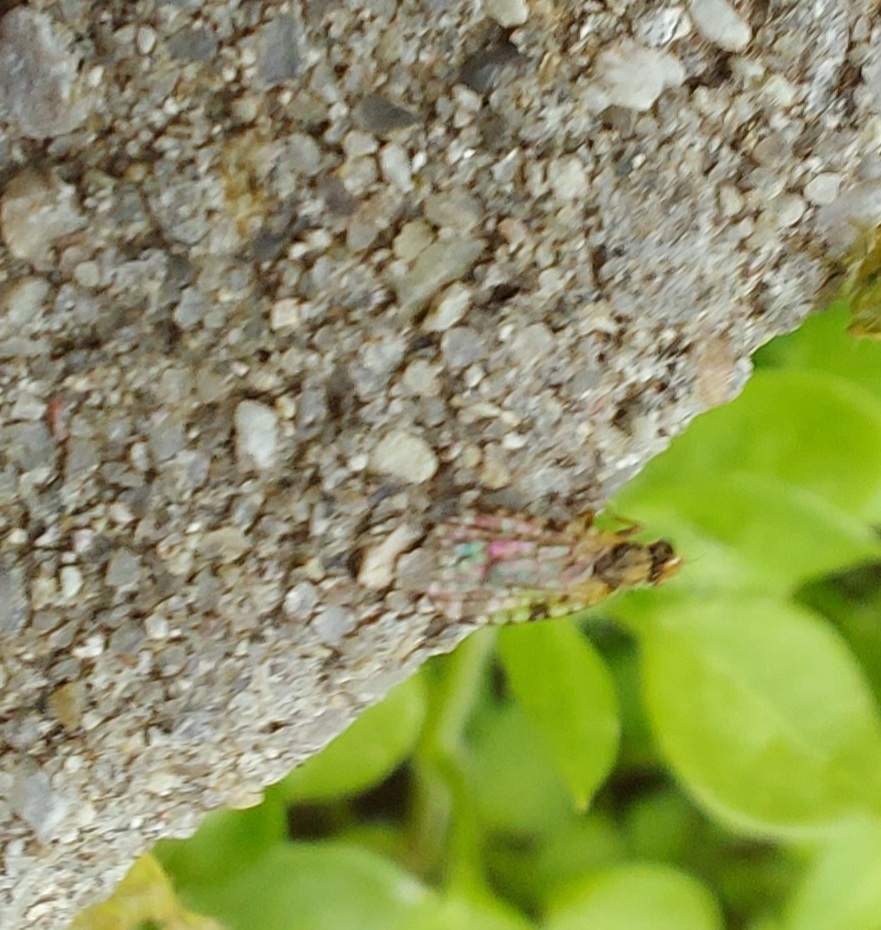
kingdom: Animalia
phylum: Arthropoda
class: Insecta
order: Diptera
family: Tephritidae
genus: Dioxyna
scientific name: Dioxyna bidentis
